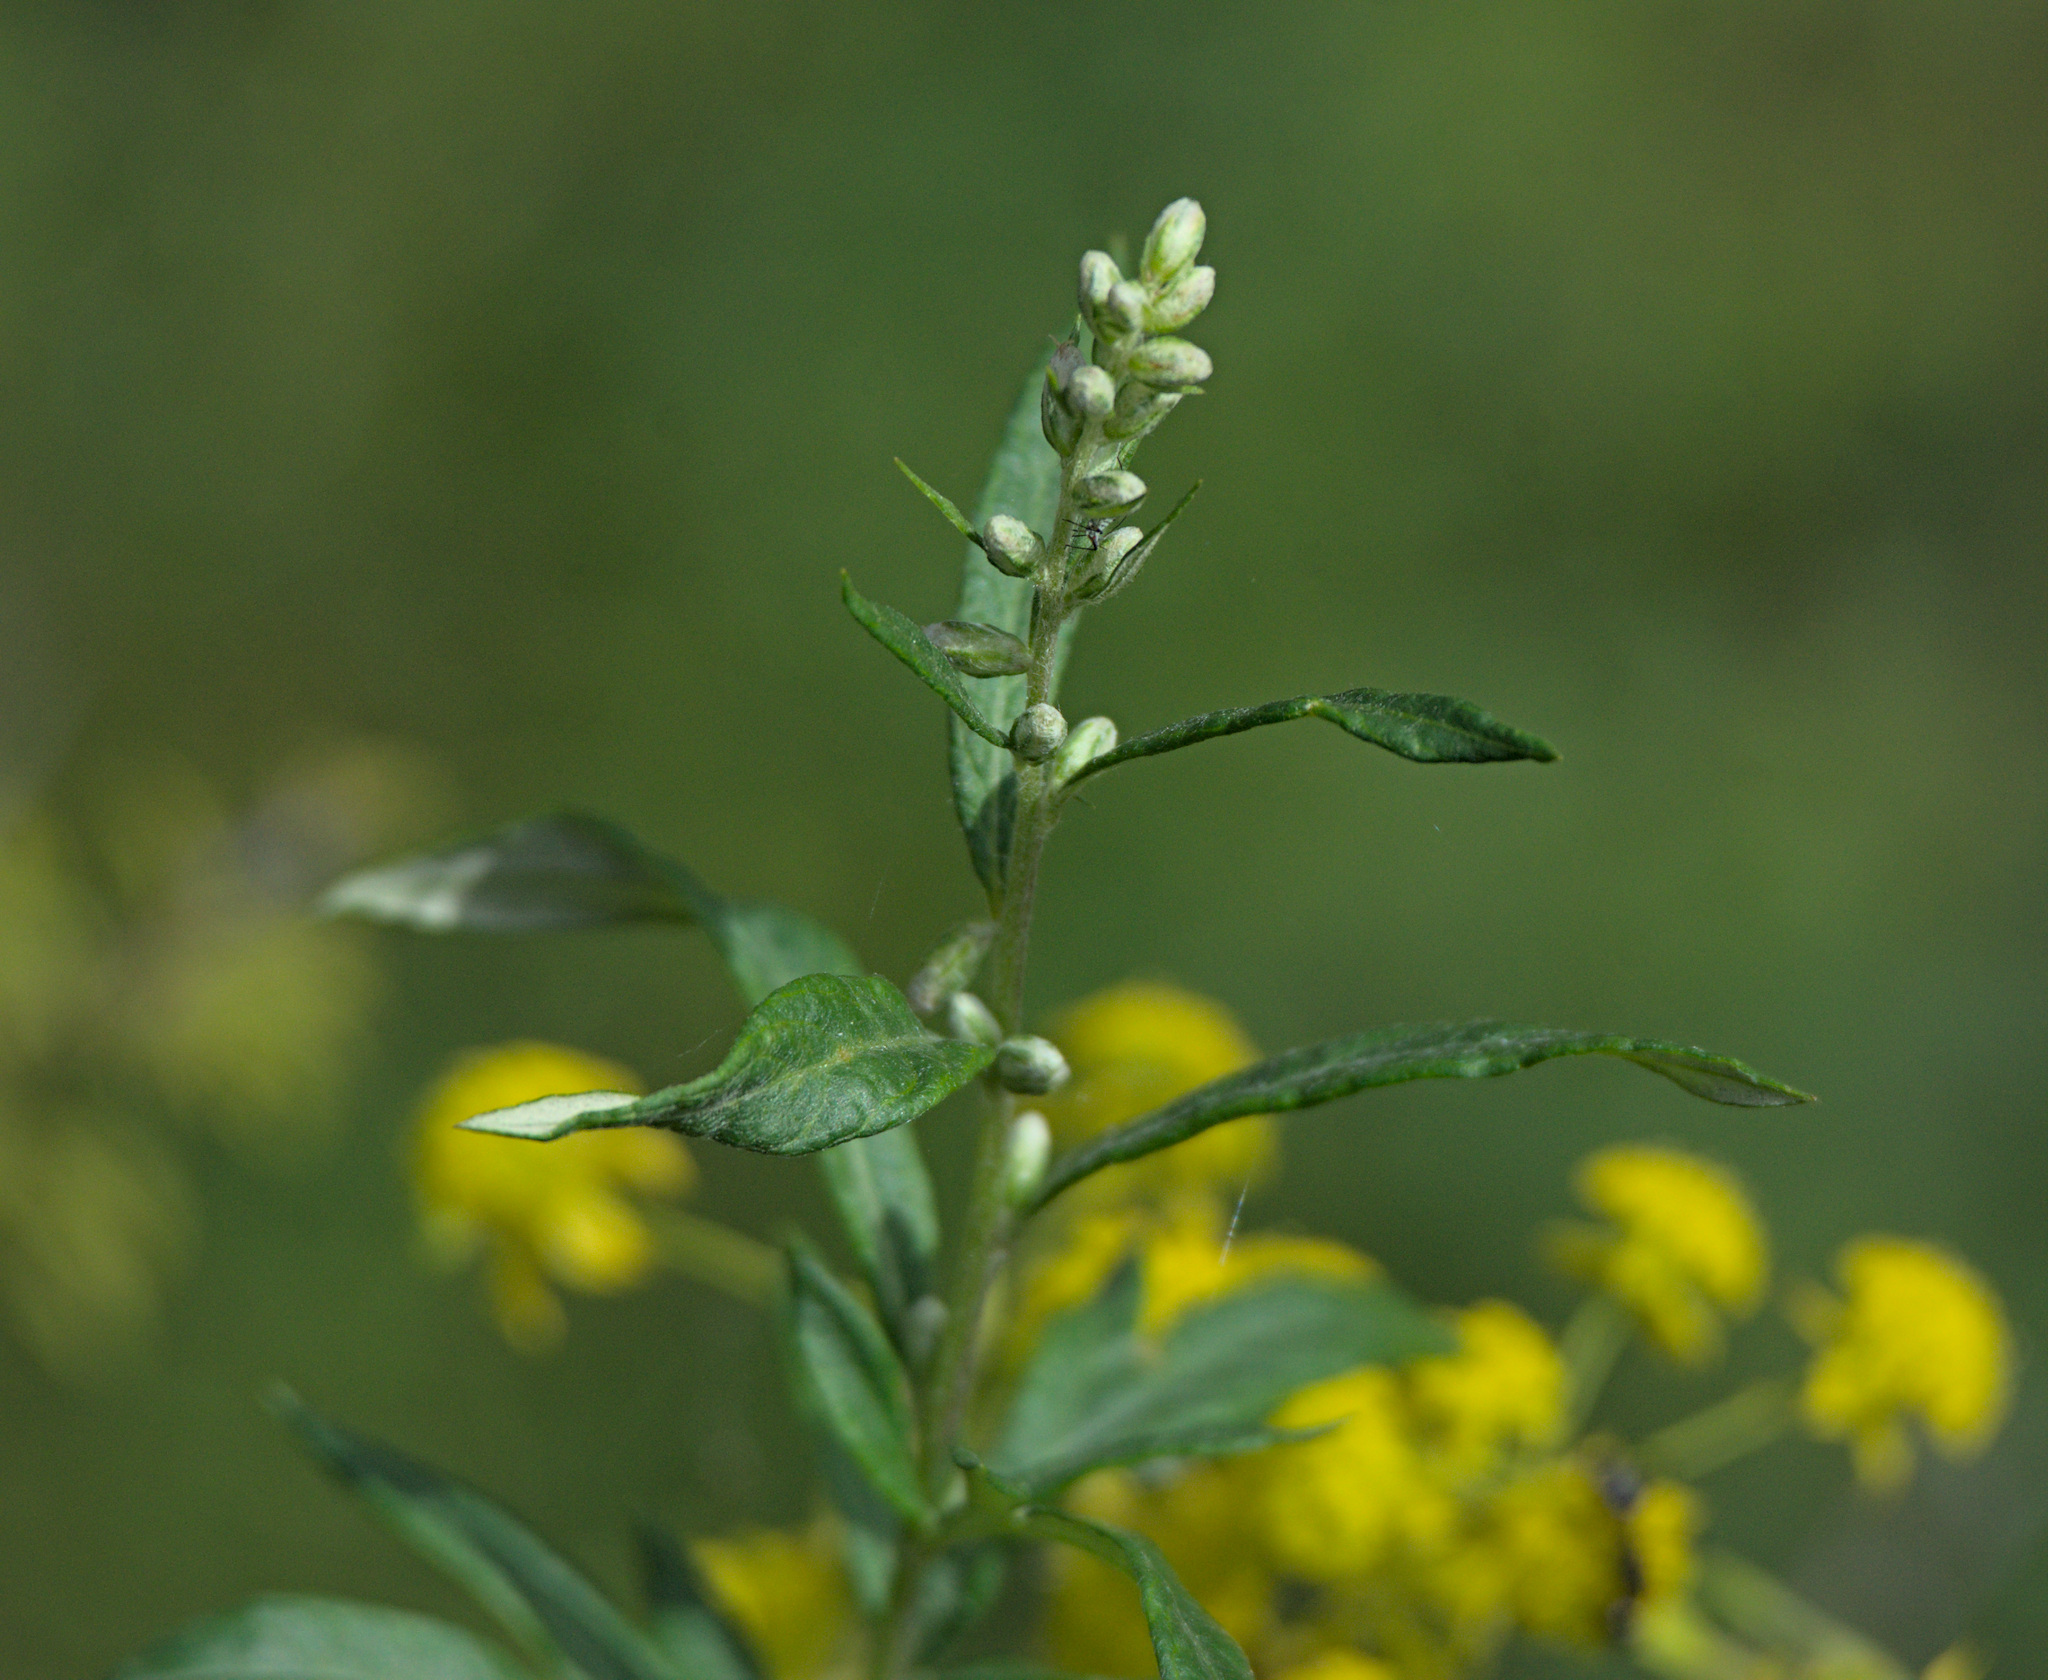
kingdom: Plantae
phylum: Tracheophyta
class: Magnoliopsida
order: Asterales
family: Asteraceae
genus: Artemisia
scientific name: Artemisia vulgaris
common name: Mugwort
